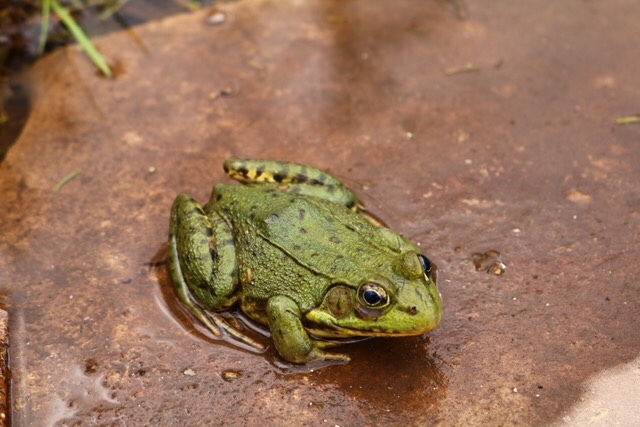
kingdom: Animalia
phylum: Chordata
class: Amphibia
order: Anura
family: Ranidae
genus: Lithobates
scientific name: Lithobates clamitans
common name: Green frog
